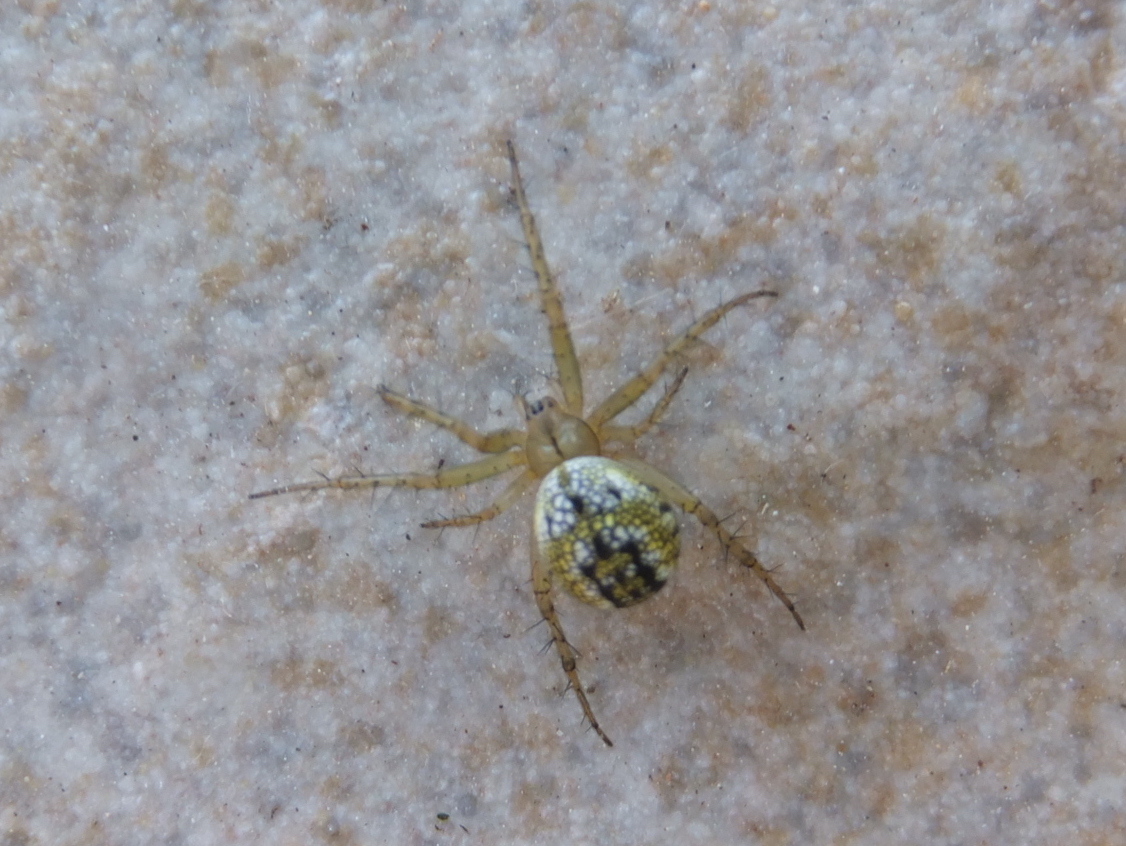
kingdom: Animalia
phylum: Arthropoda
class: Arachnida
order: Araneae
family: Araneidae
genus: Mangora
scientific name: Mangora acalypha
